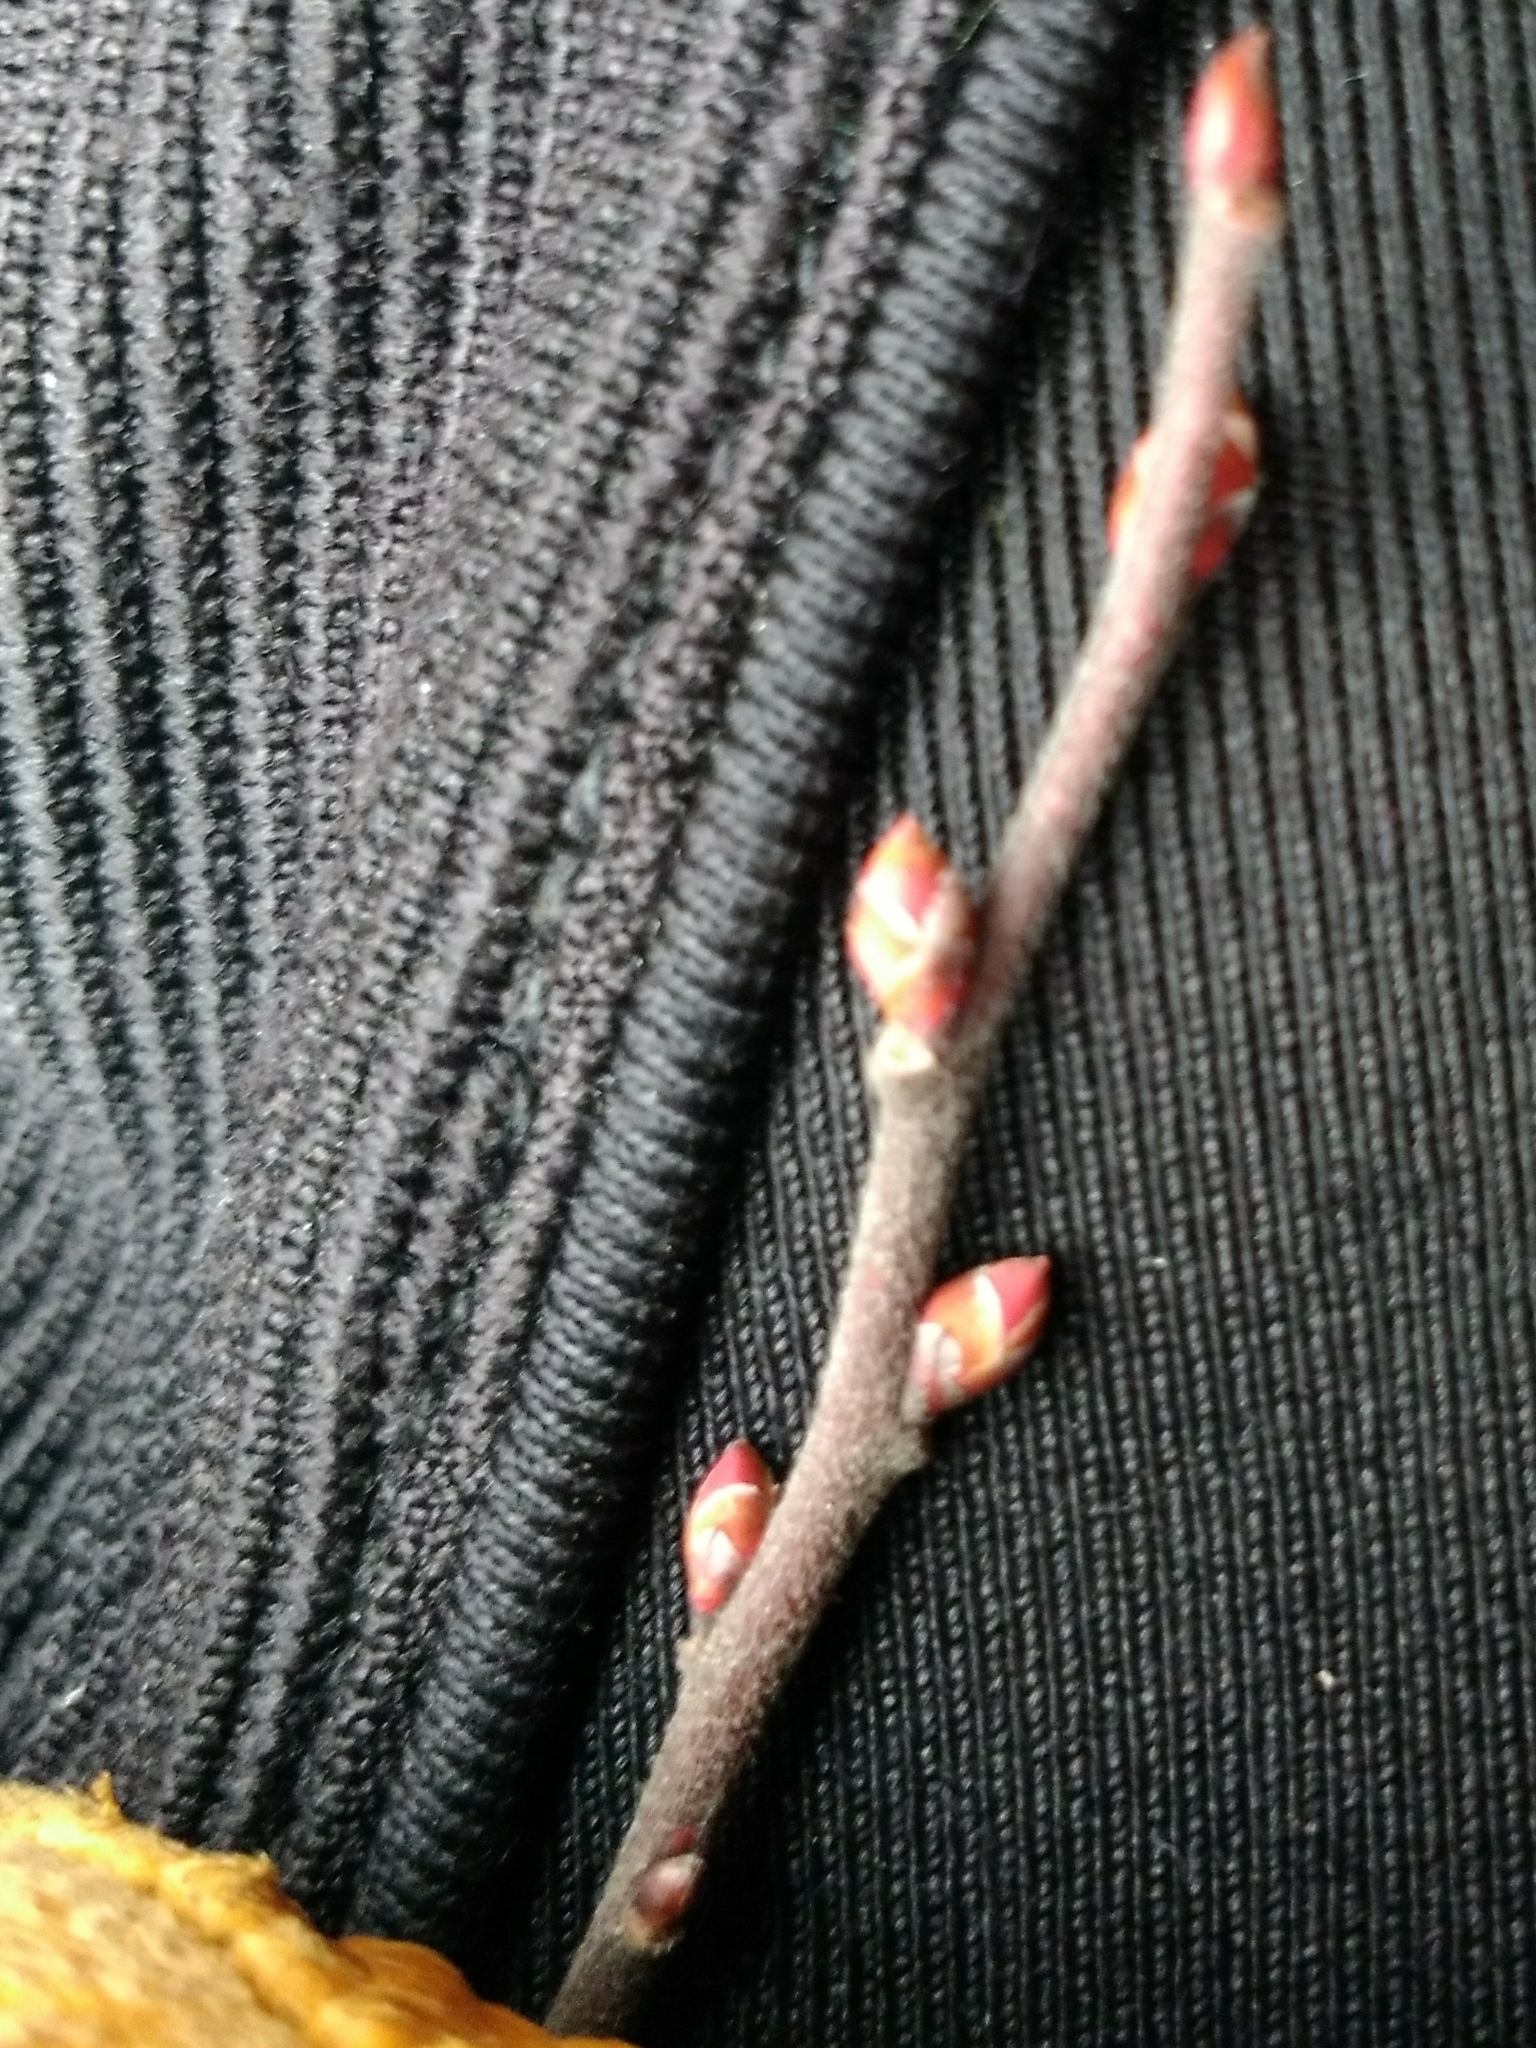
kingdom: Plantae
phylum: Tracheophyta
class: Magnoliopsida
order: Ericales
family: Ericaceae
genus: Gaylussacia
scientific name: Gaylussacia baccata
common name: Black huckleberry
